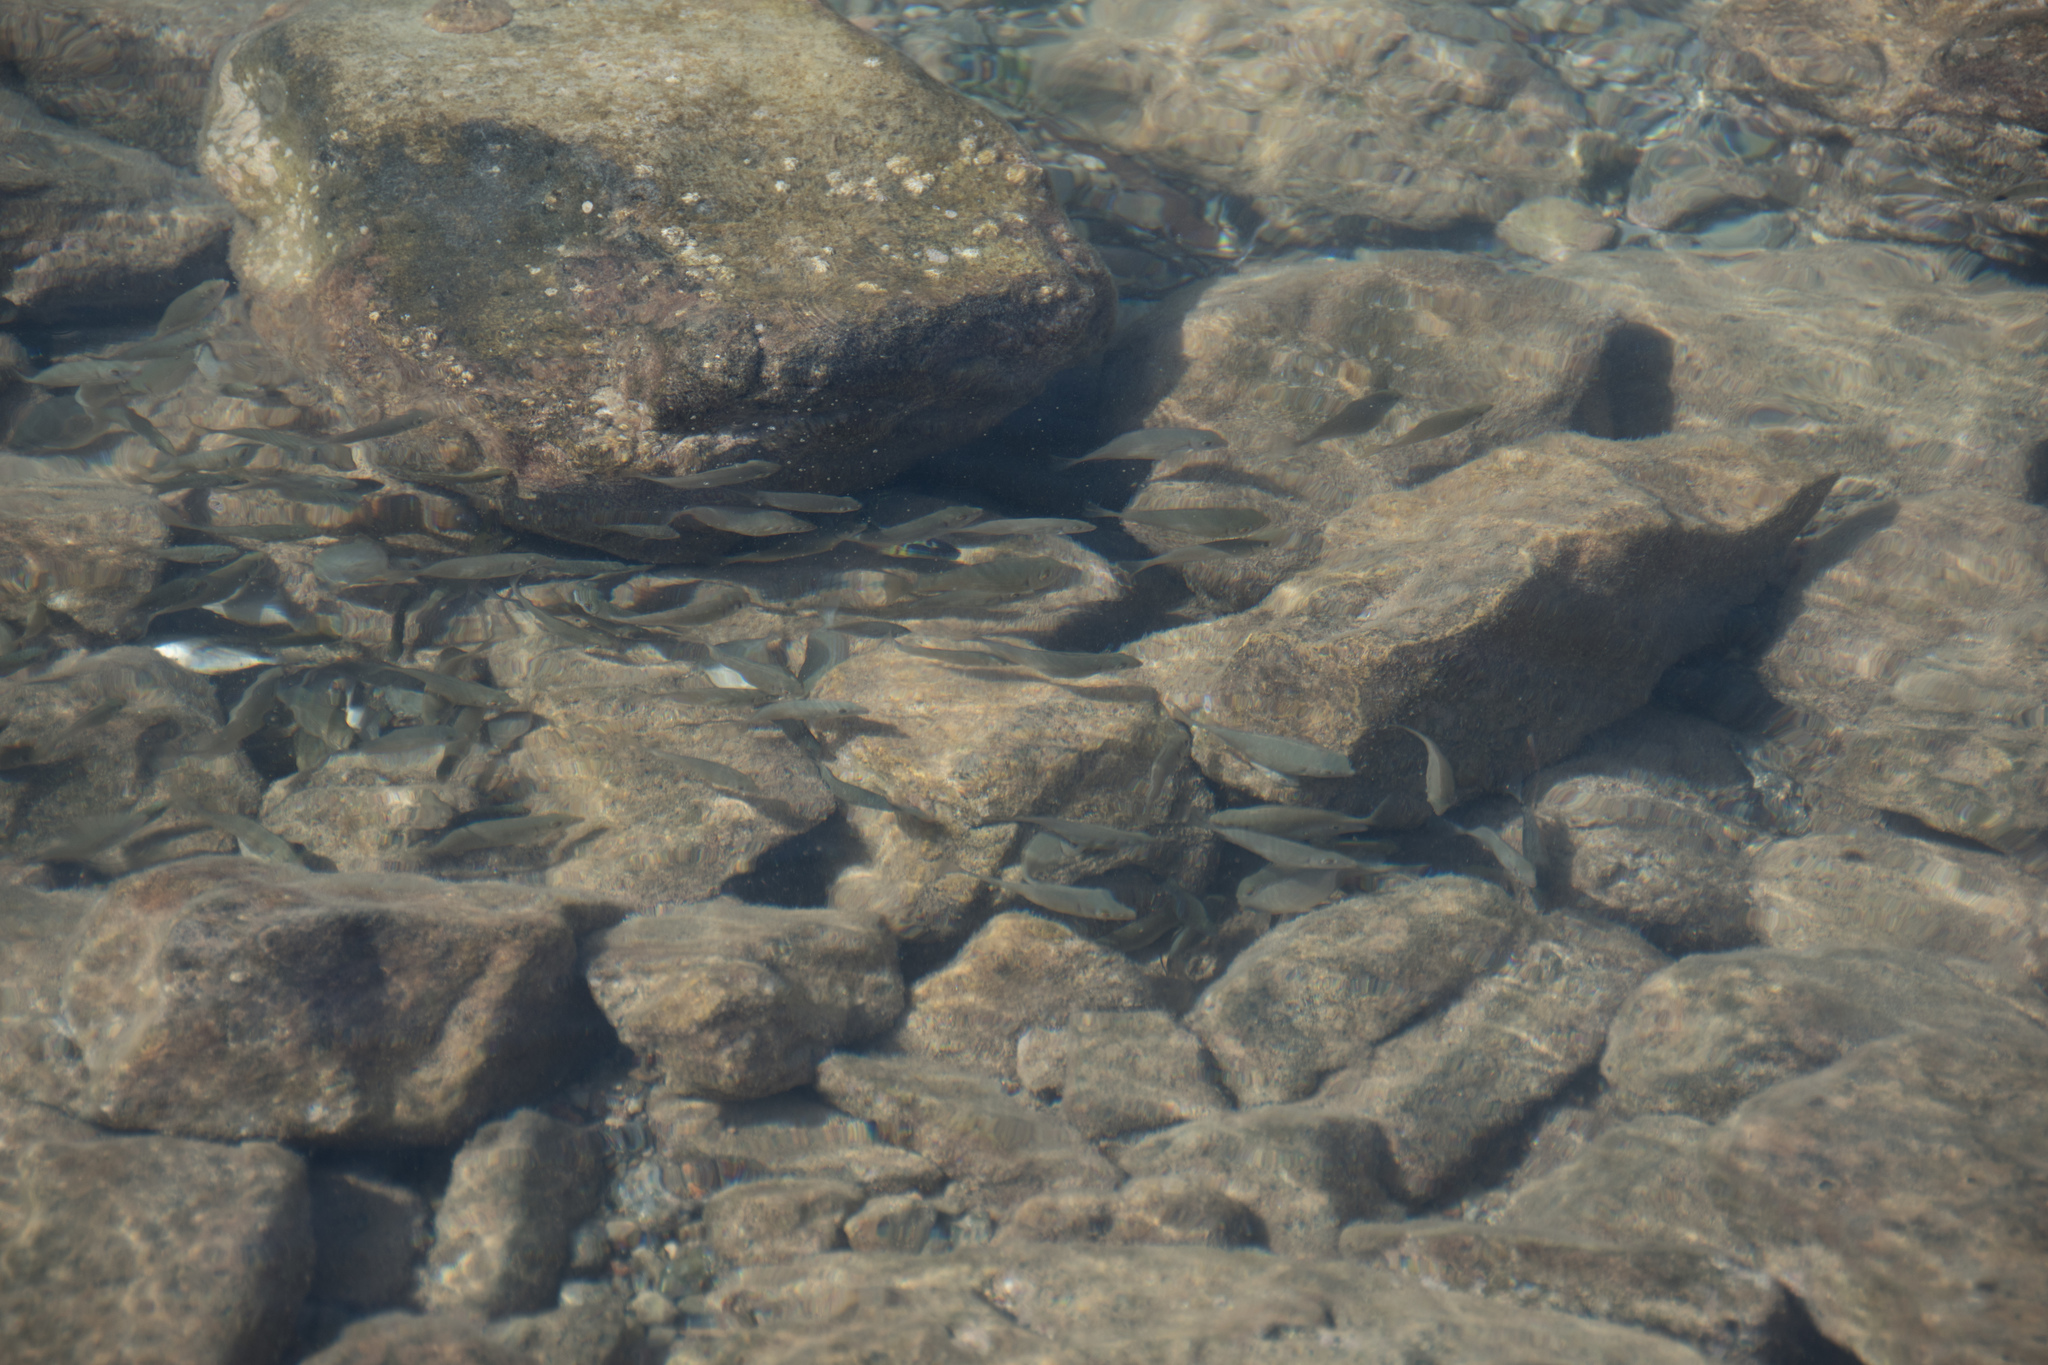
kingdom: Animalia
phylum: Chordata
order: Perciformes
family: Labridae
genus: Thalassoma
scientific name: Thalassoma pavo
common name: Ornate wrasse
